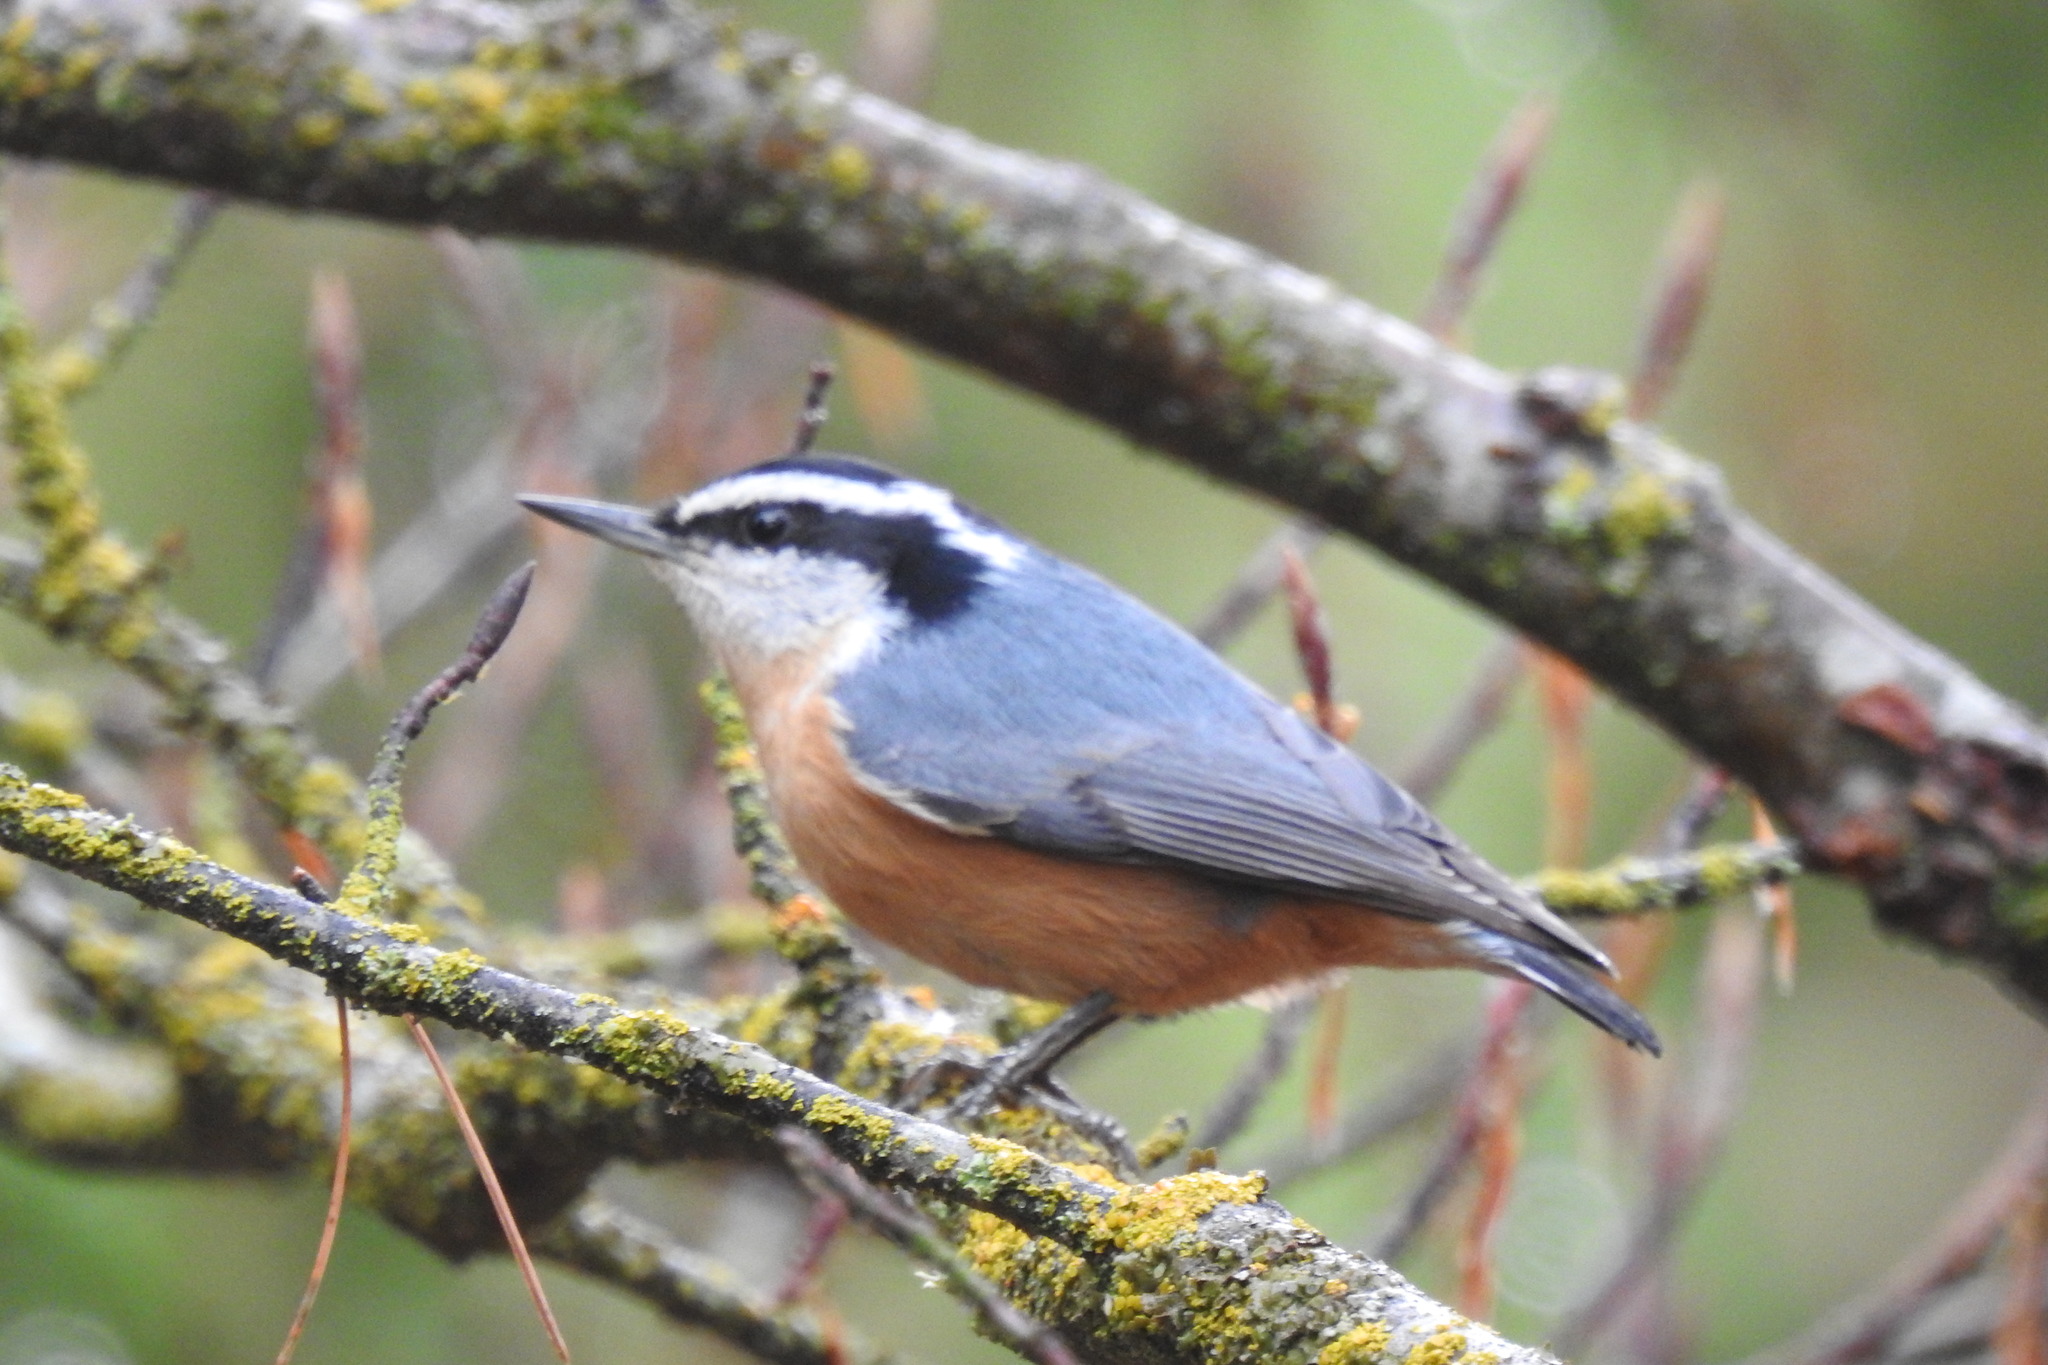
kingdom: Animalia
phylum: Chordata
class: Aves
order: Passeriformes
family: Sittidae
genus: Sitta
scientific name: Sitta canadensis
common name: Red-breasted nuthatch
